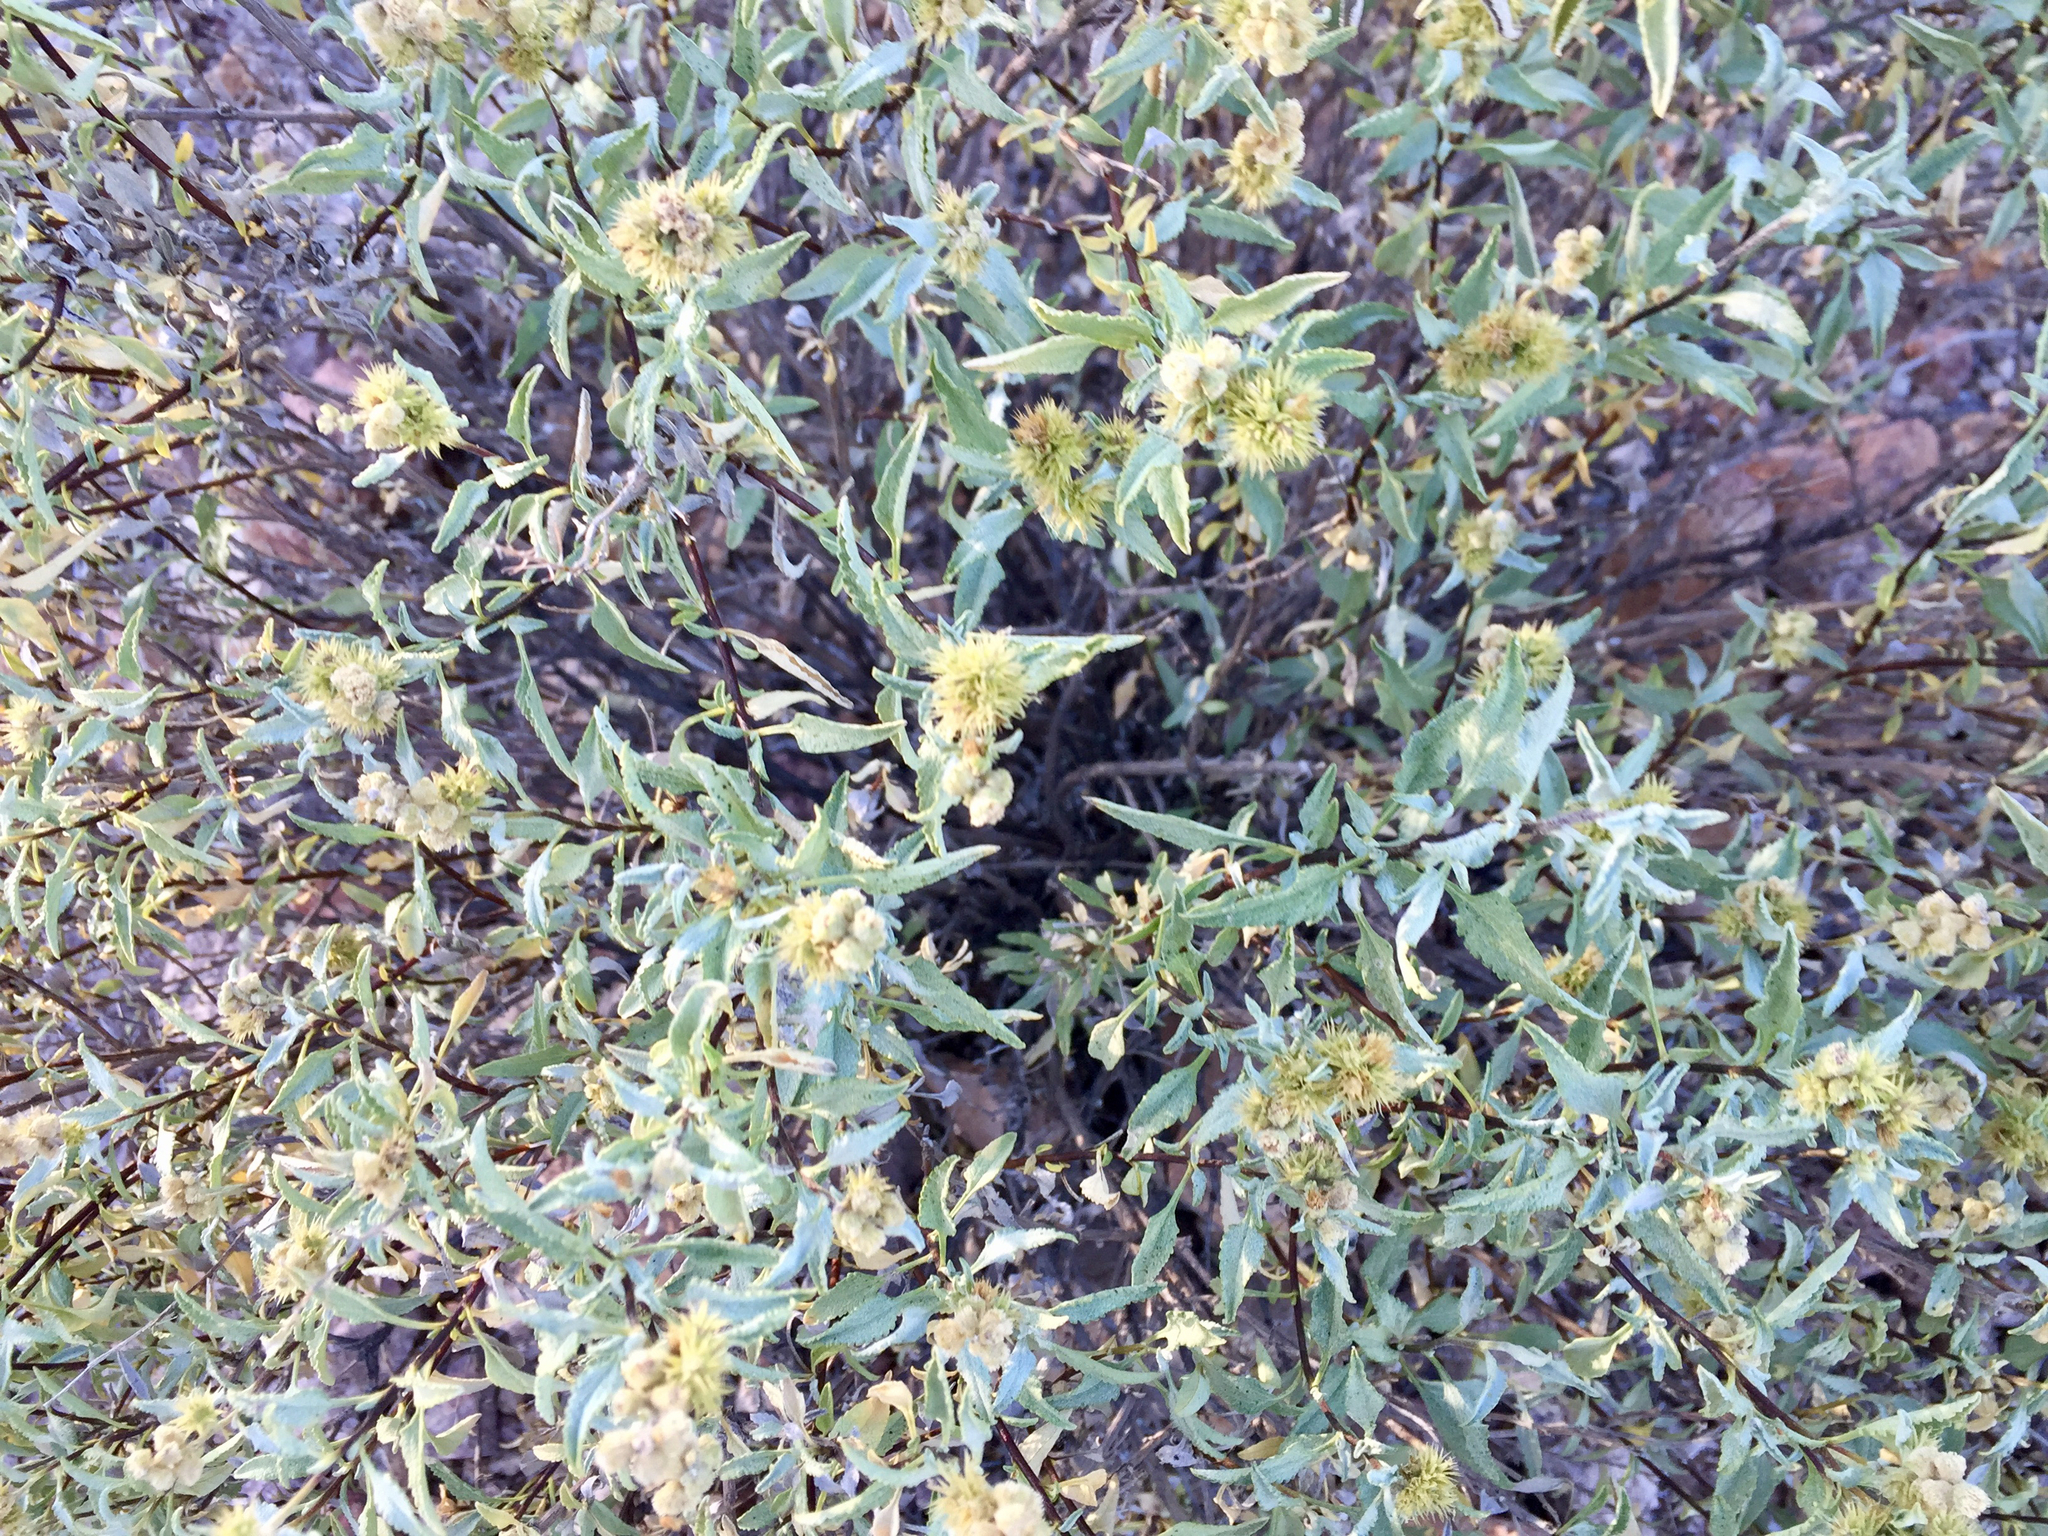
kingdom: Plantae
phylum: Tracheophyta
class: Magnoliopsida
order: Asterales
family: Asteraceae
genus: Ambrosia
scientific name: Ambrosia deltoidea
